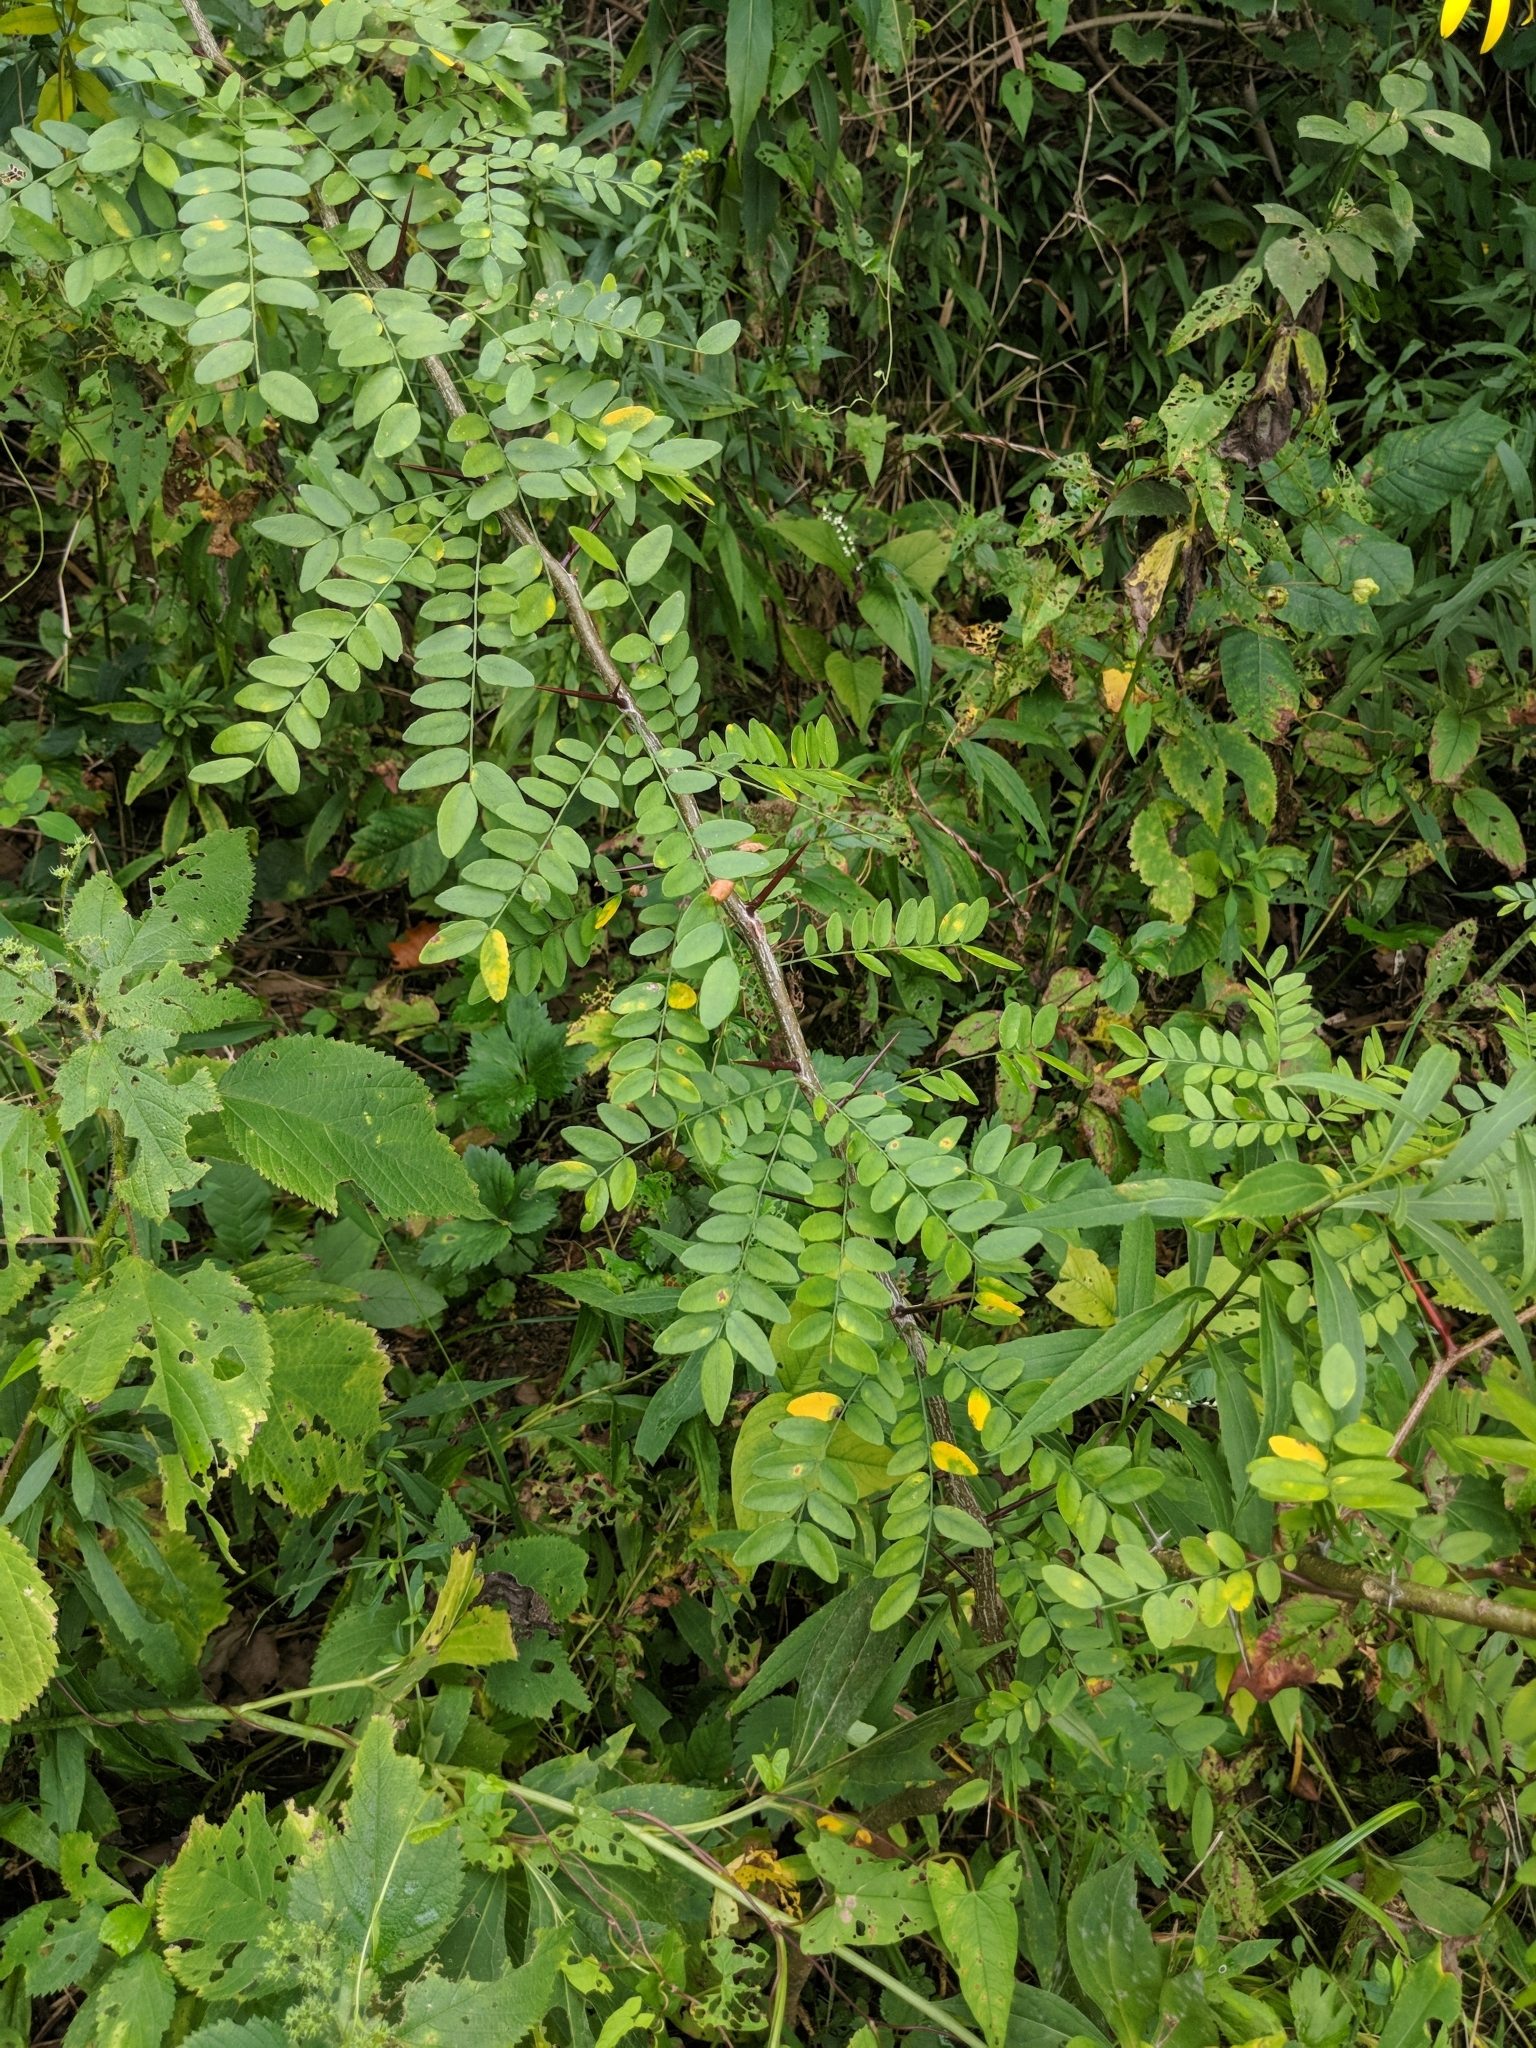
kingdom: Plantae
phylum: Tracheophyta
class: Magnoliopsida
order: Fabales
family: Fabaceae
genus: Gleditsia
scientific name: Gleditsia triacanthos
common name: Common honeylocust
